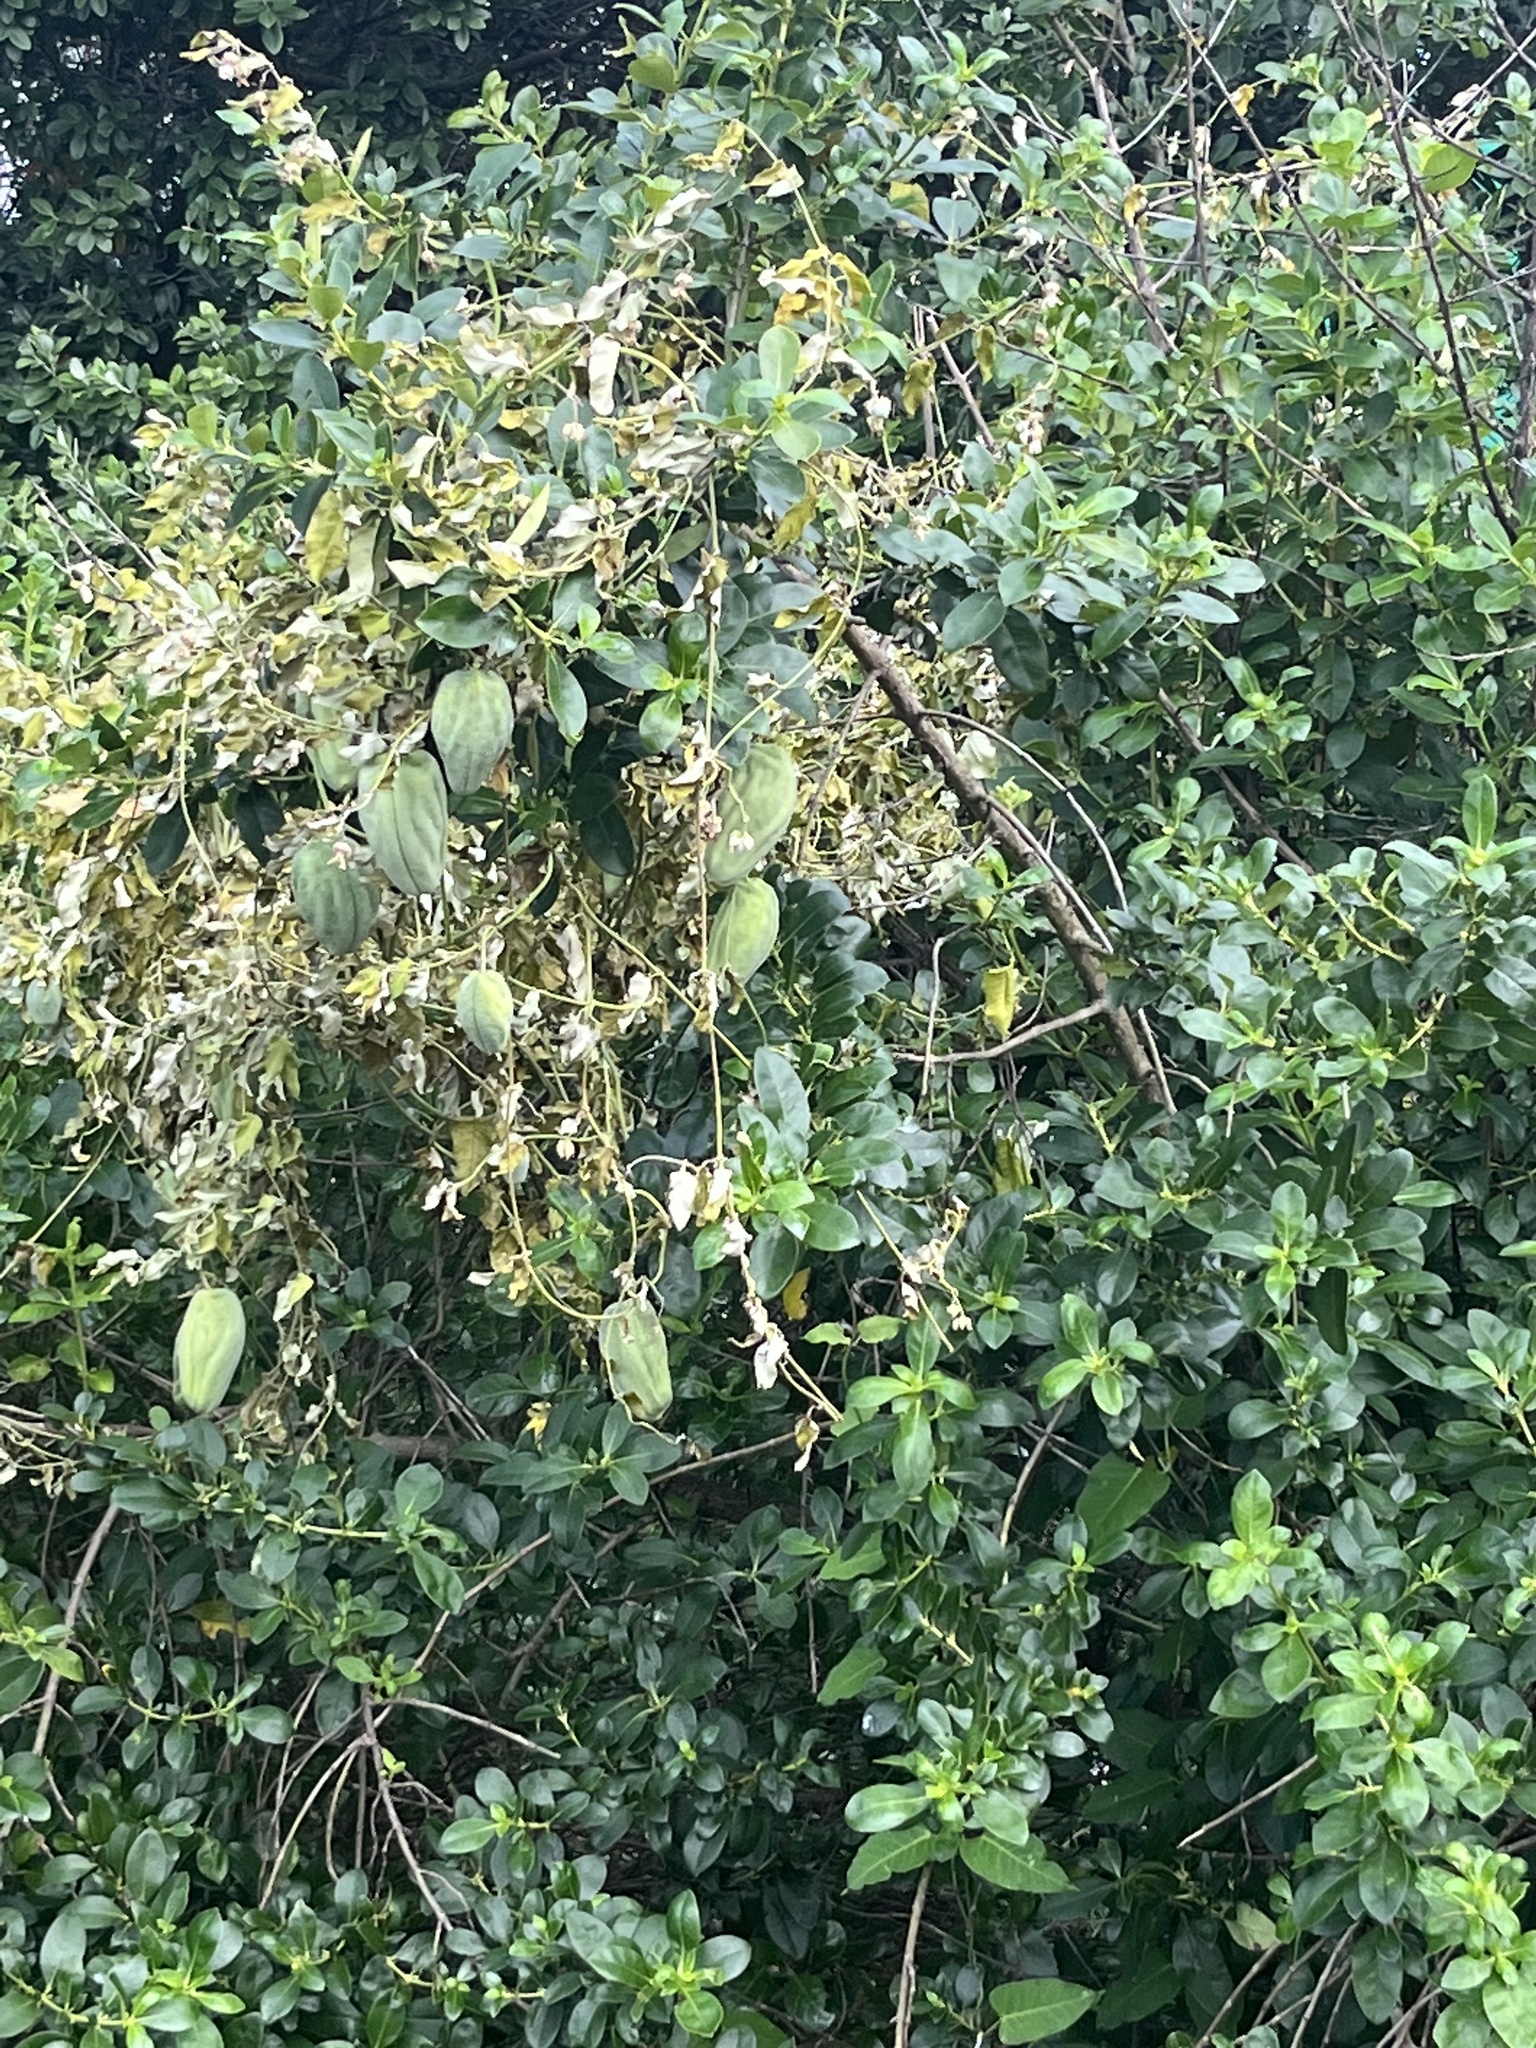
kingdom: Plantae
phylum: Tracheophyta
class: Magnoliopsida
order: Gentianales
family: Apocynaceae
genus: Araujia
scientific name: Araujia sericifera
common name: White bladderflower
